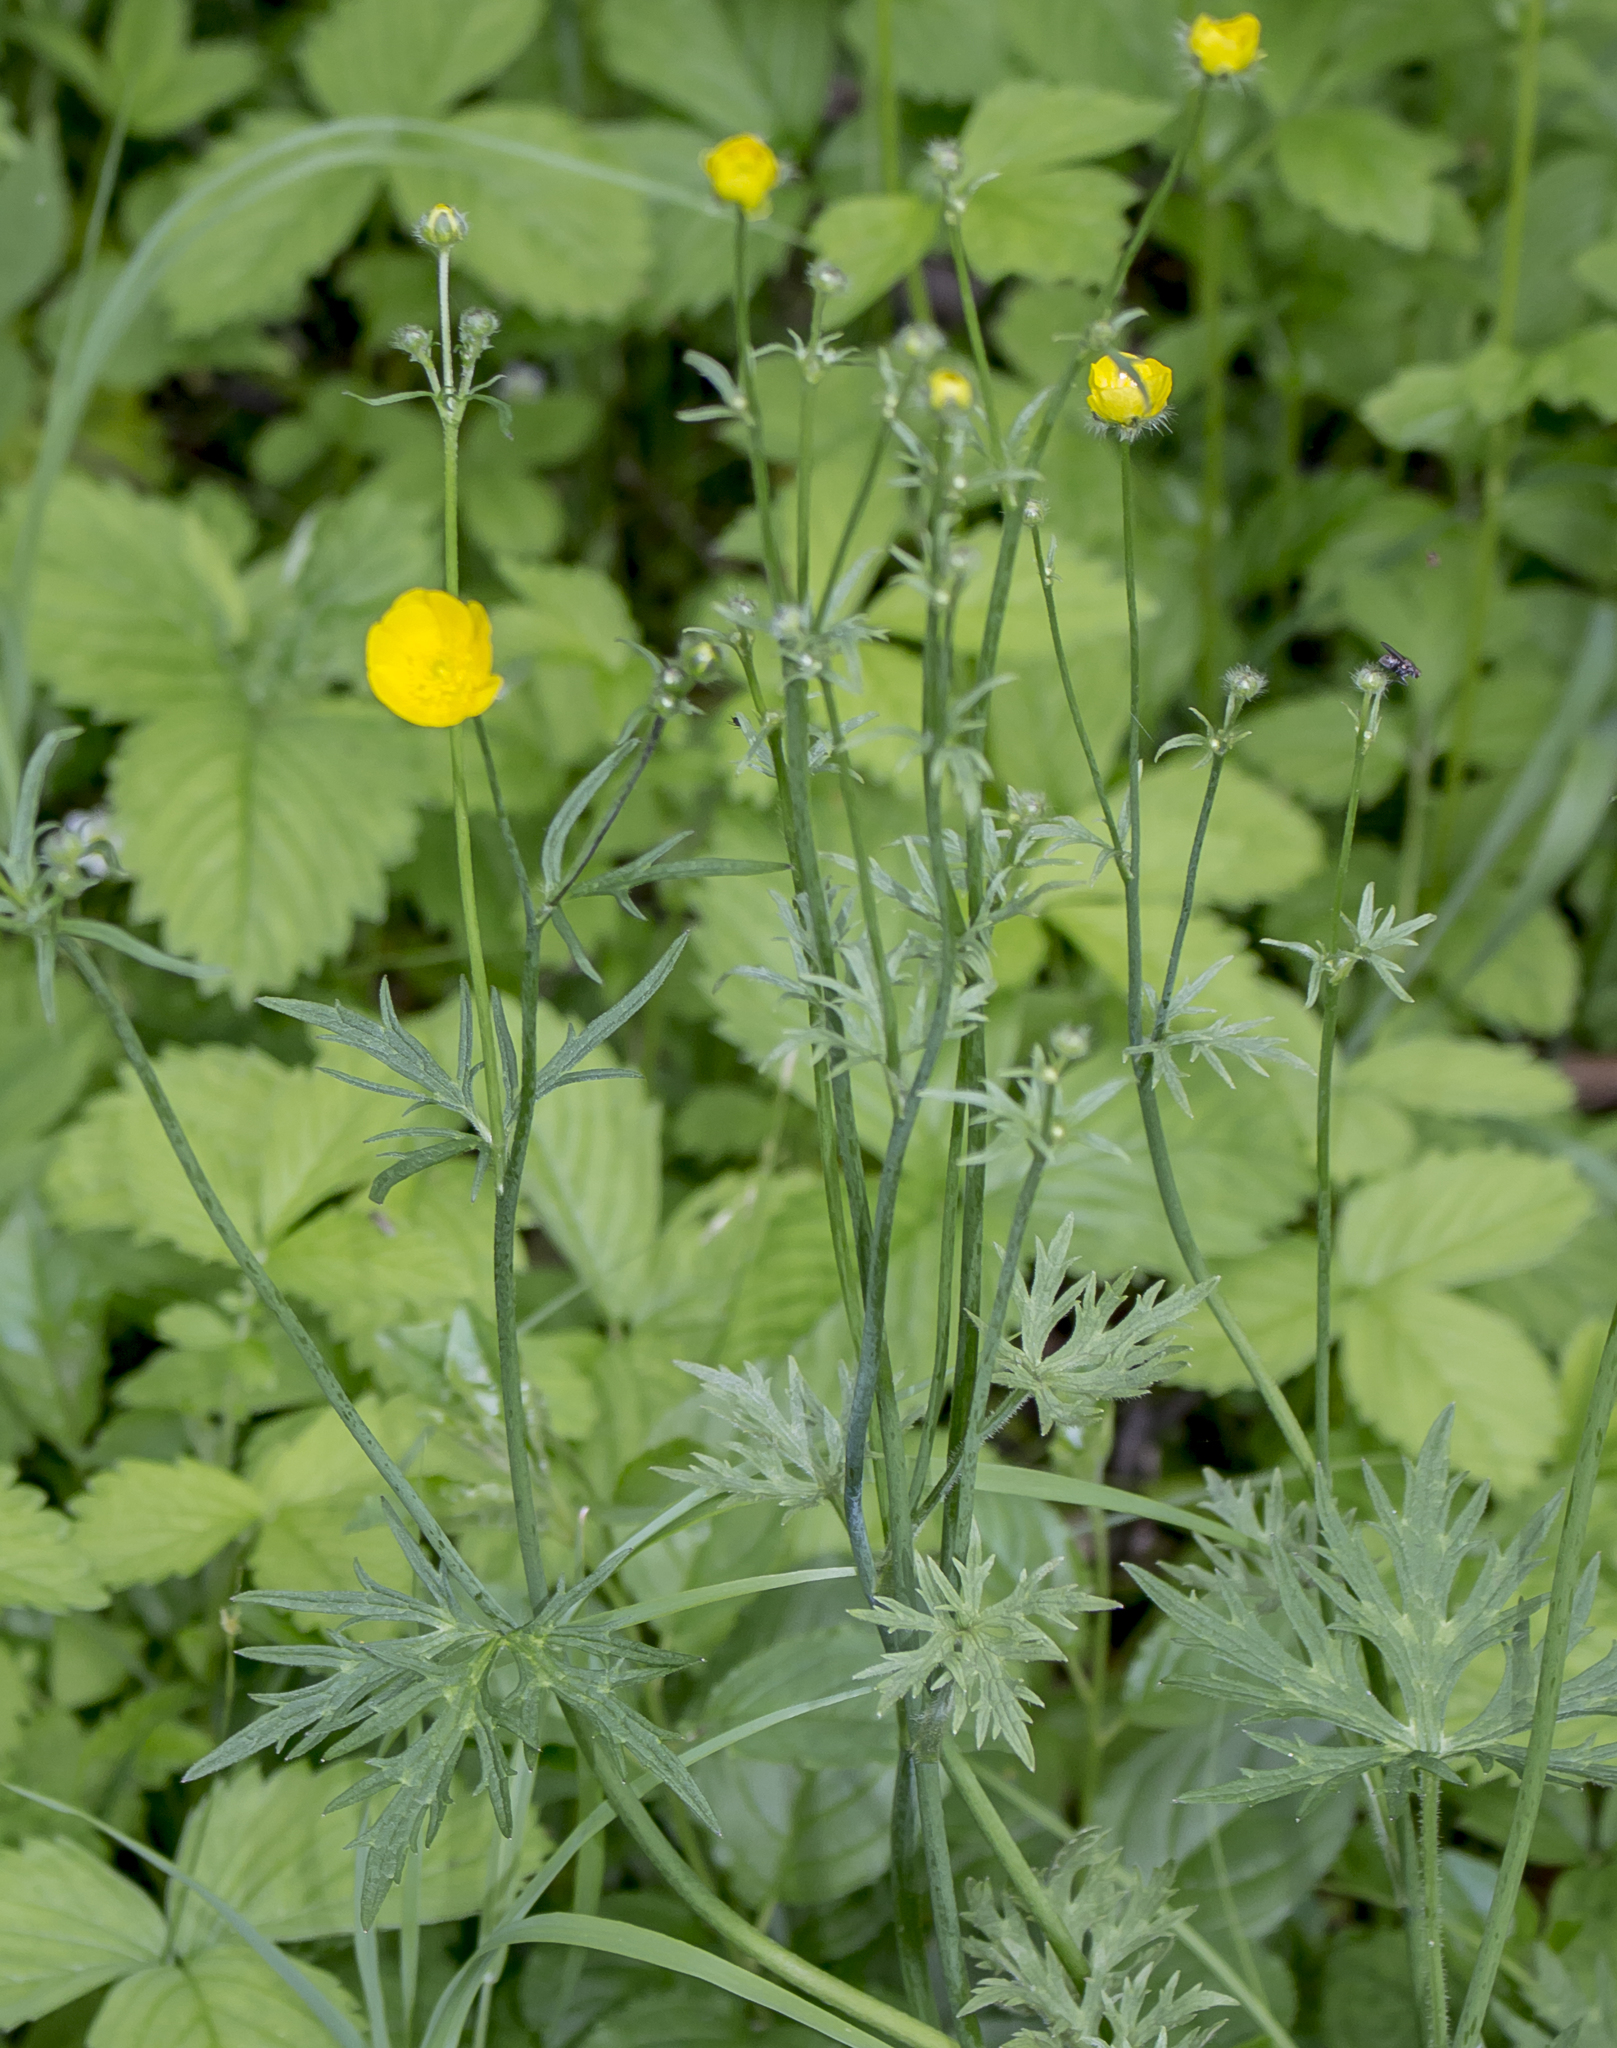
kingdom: Plantae
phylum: Tracheophyta
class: Magnoliopsida
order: Ranunculales
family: Ranunculaceae
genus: Ranunculus
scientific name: Ranunculus acris
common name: Meadow buttercup
